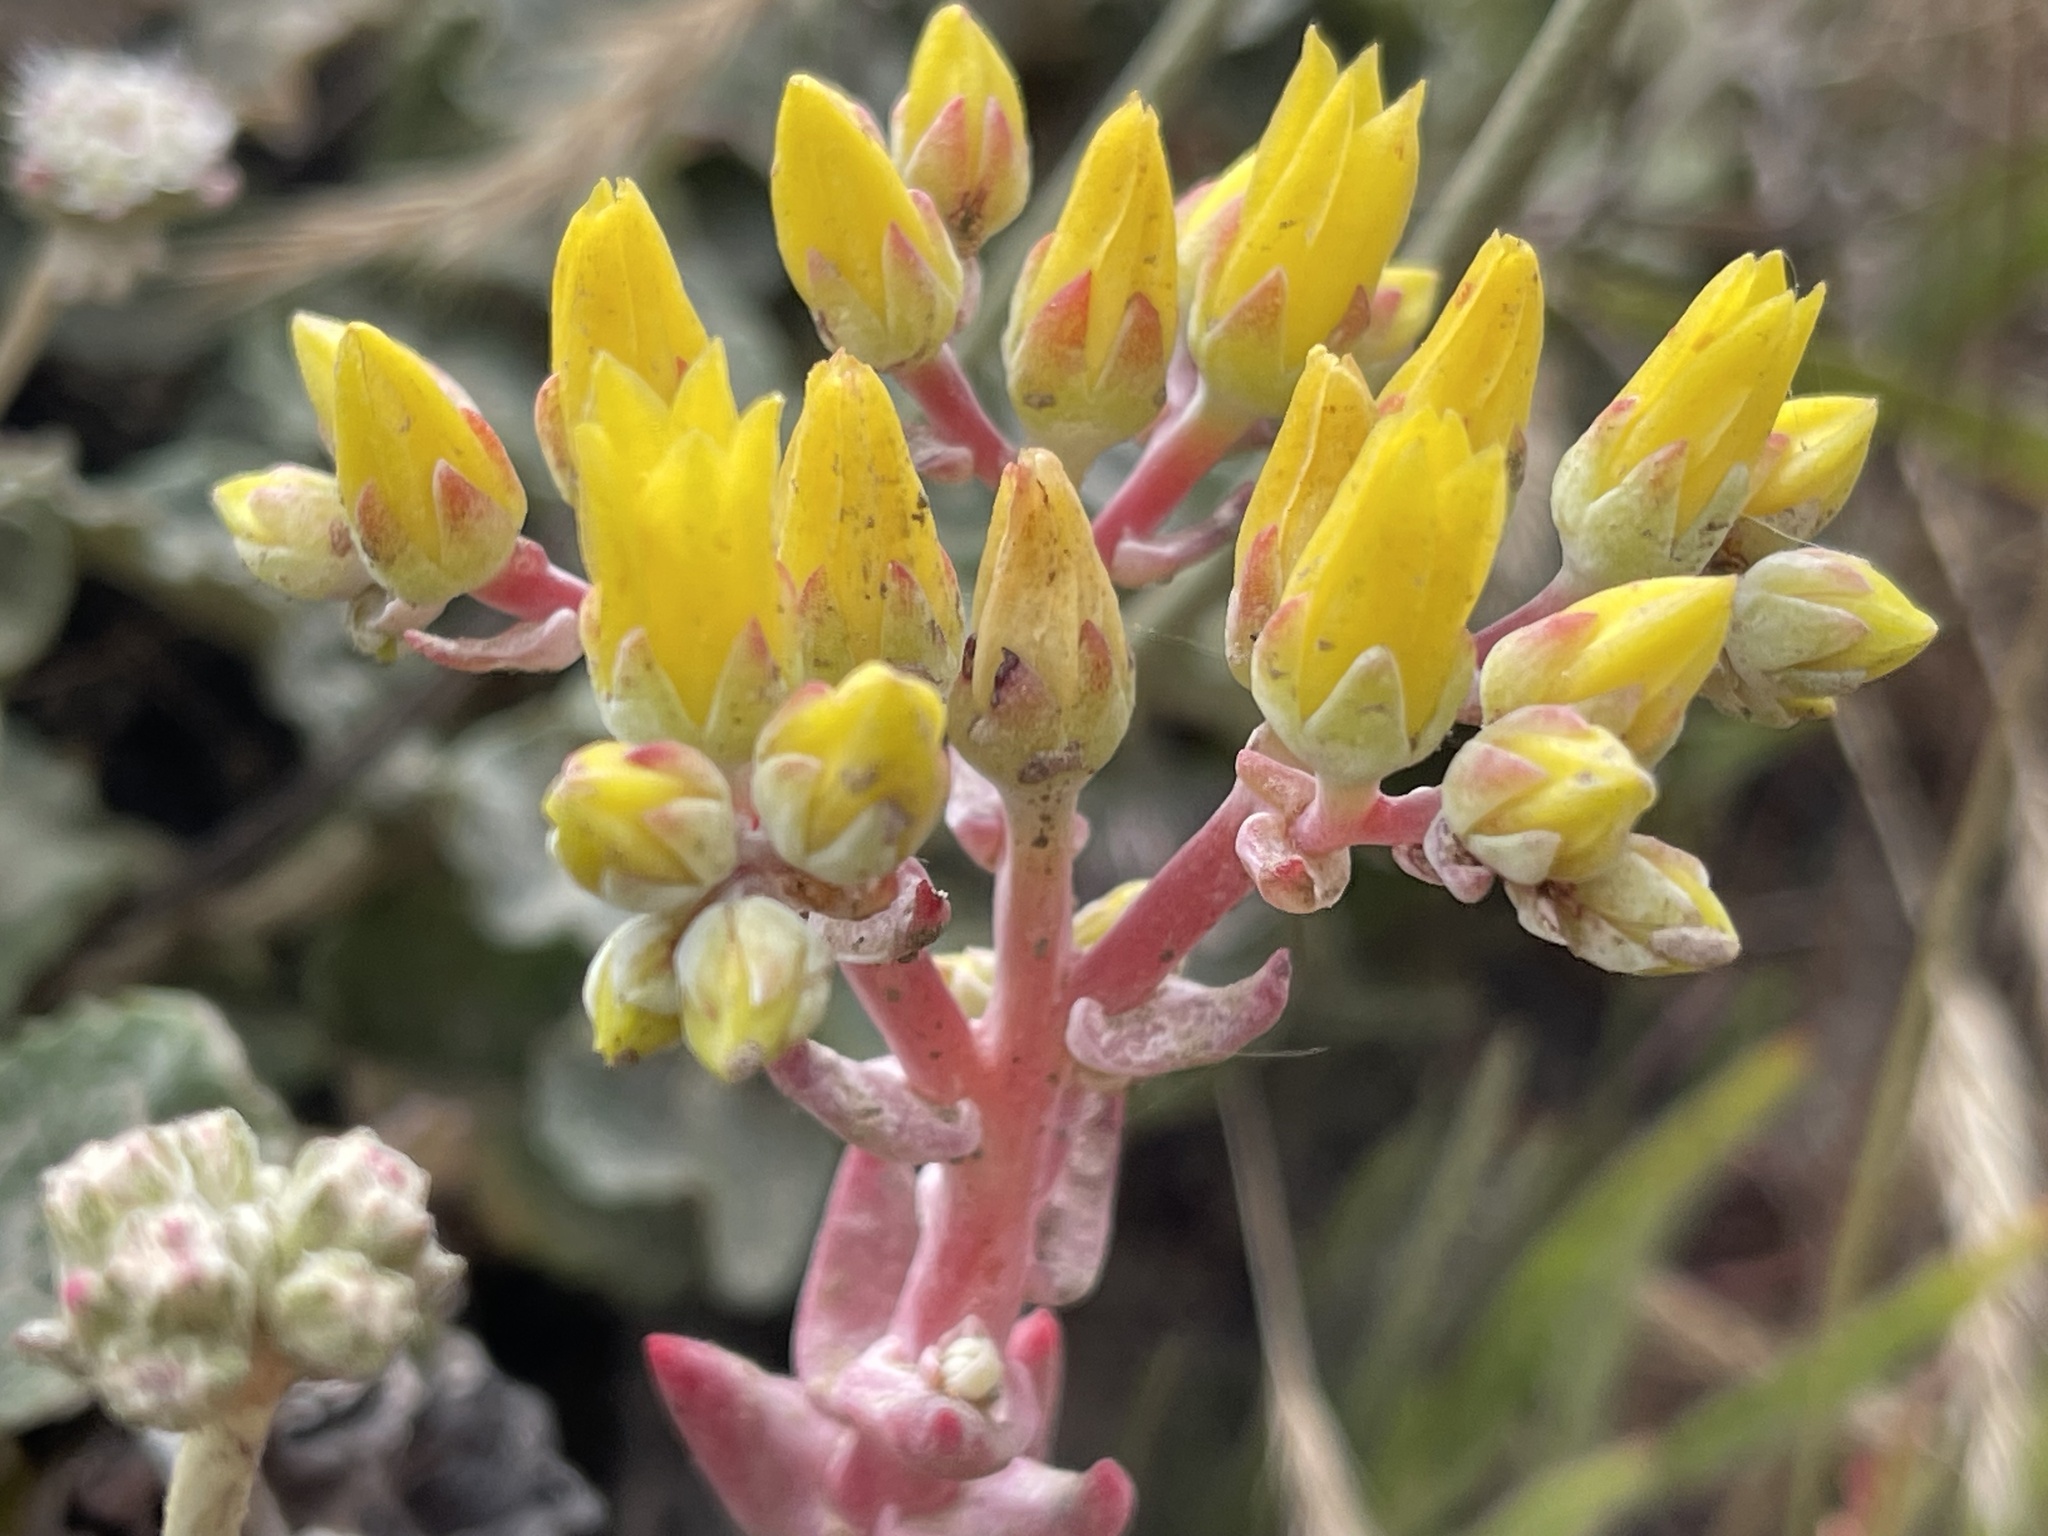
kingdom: Plantae
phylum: Tracheophyta
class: Magnoliopsida
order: Saxifragales
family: Crassulaceae
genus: Dudleya
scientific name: Dudleya caespitosa
